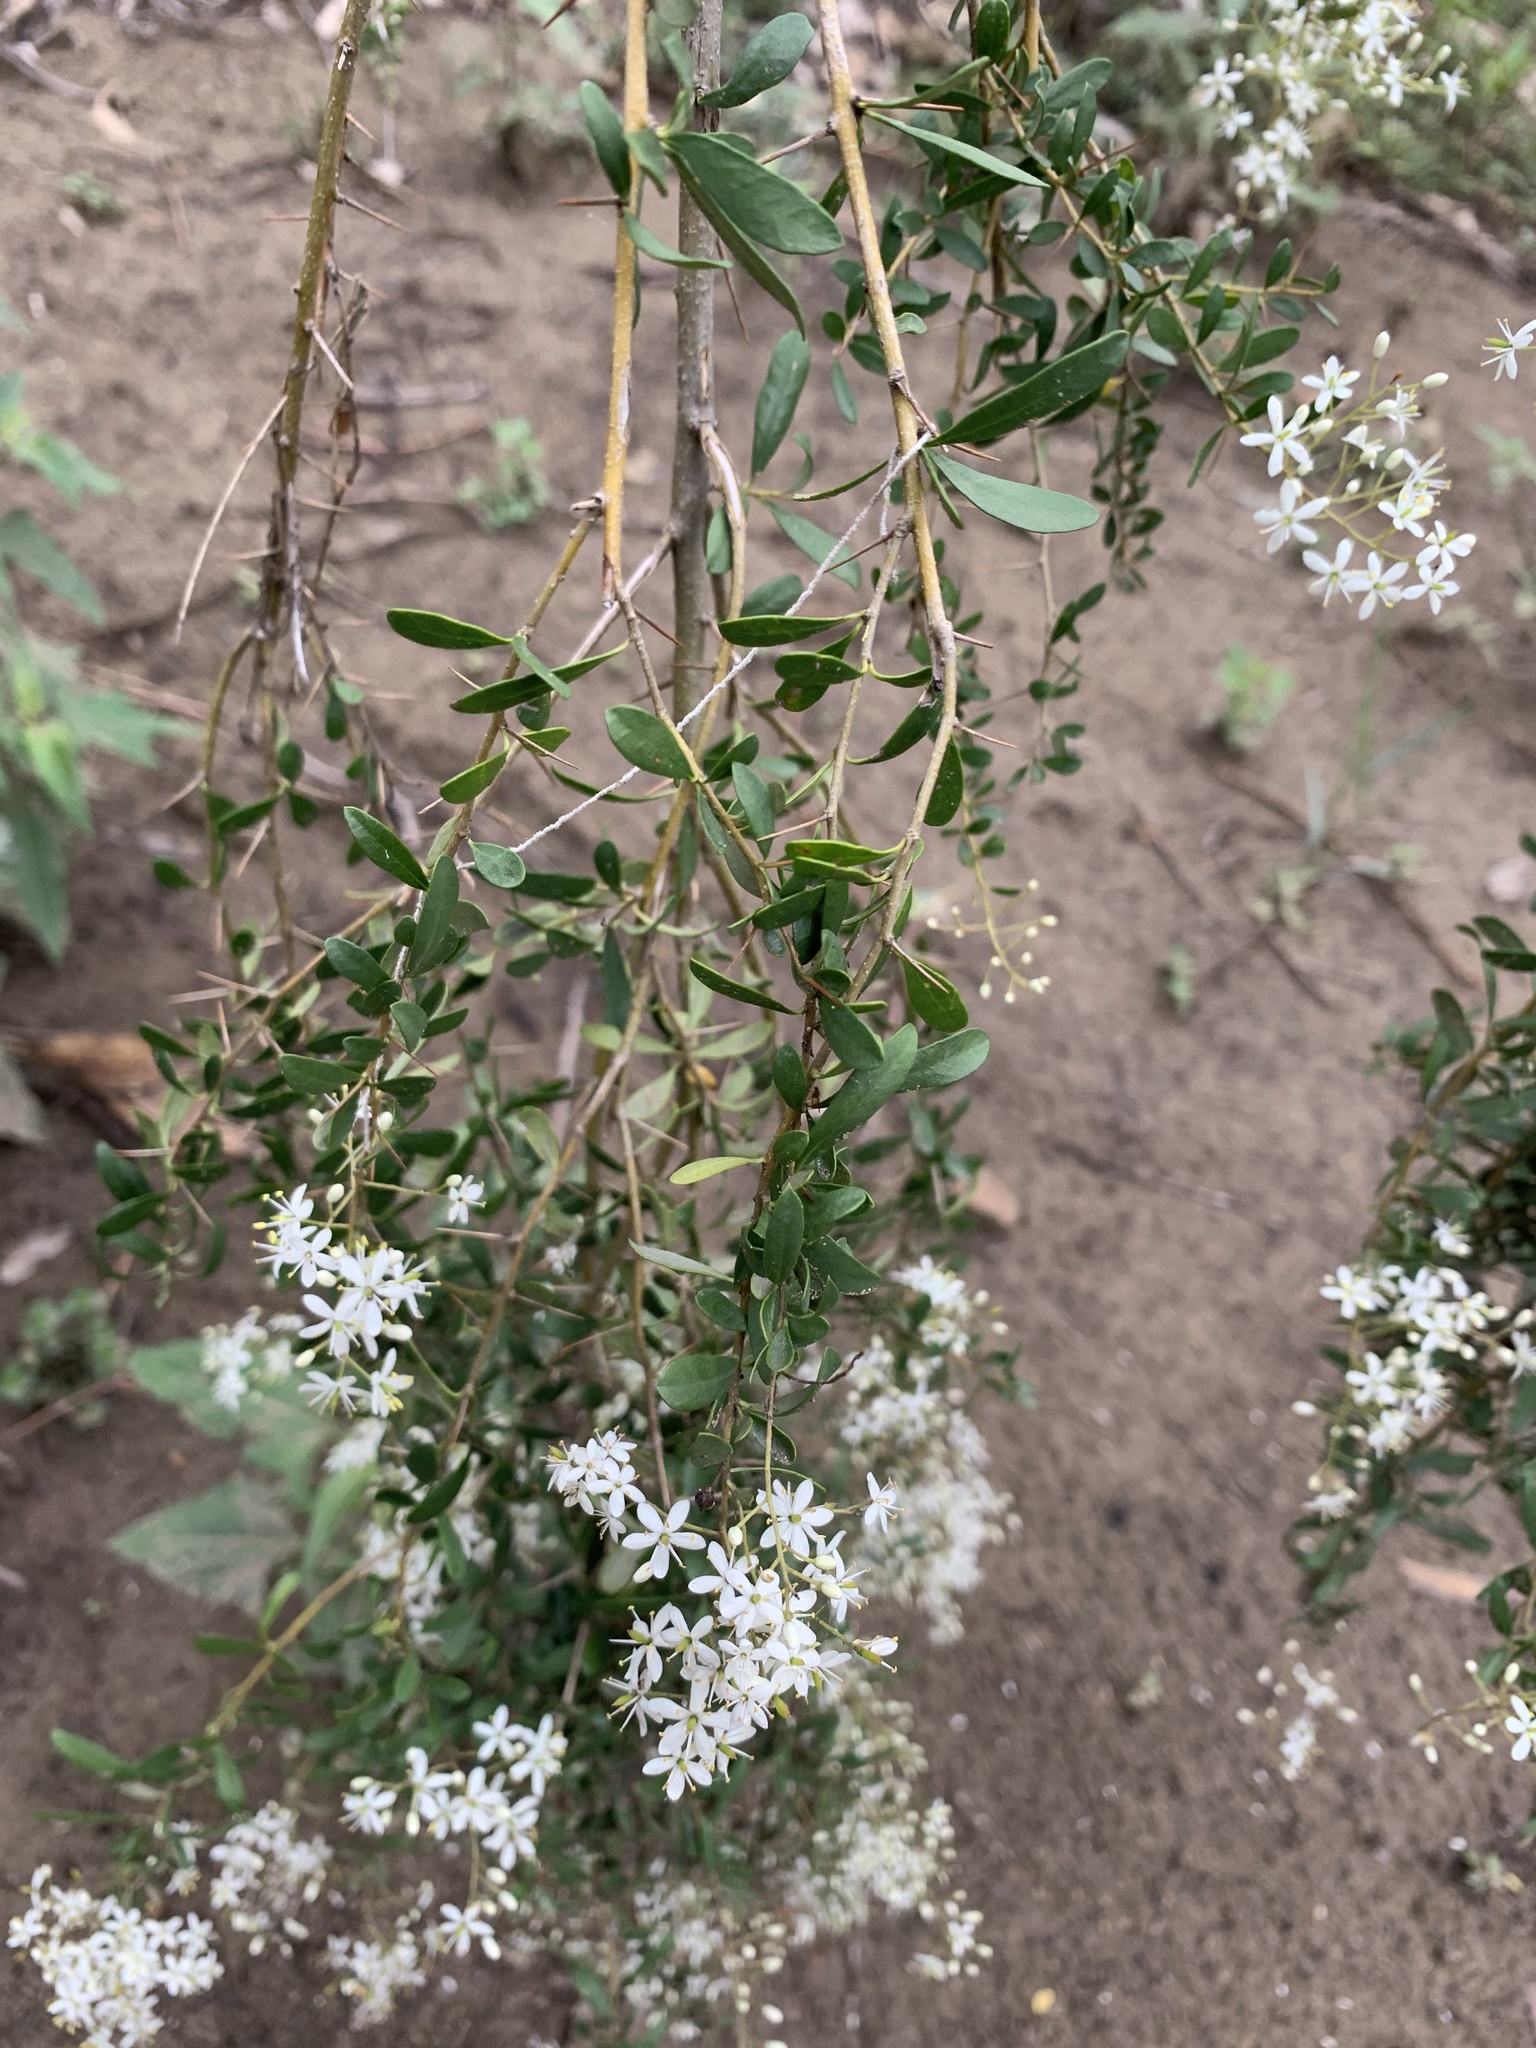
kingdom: Plantae
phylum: Tracheophyta
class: Magnoliopsida
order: Apiales
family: Pittosporaceae
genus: Bursaria
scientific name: Bursaria spinosa
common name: Australian blackthorn
